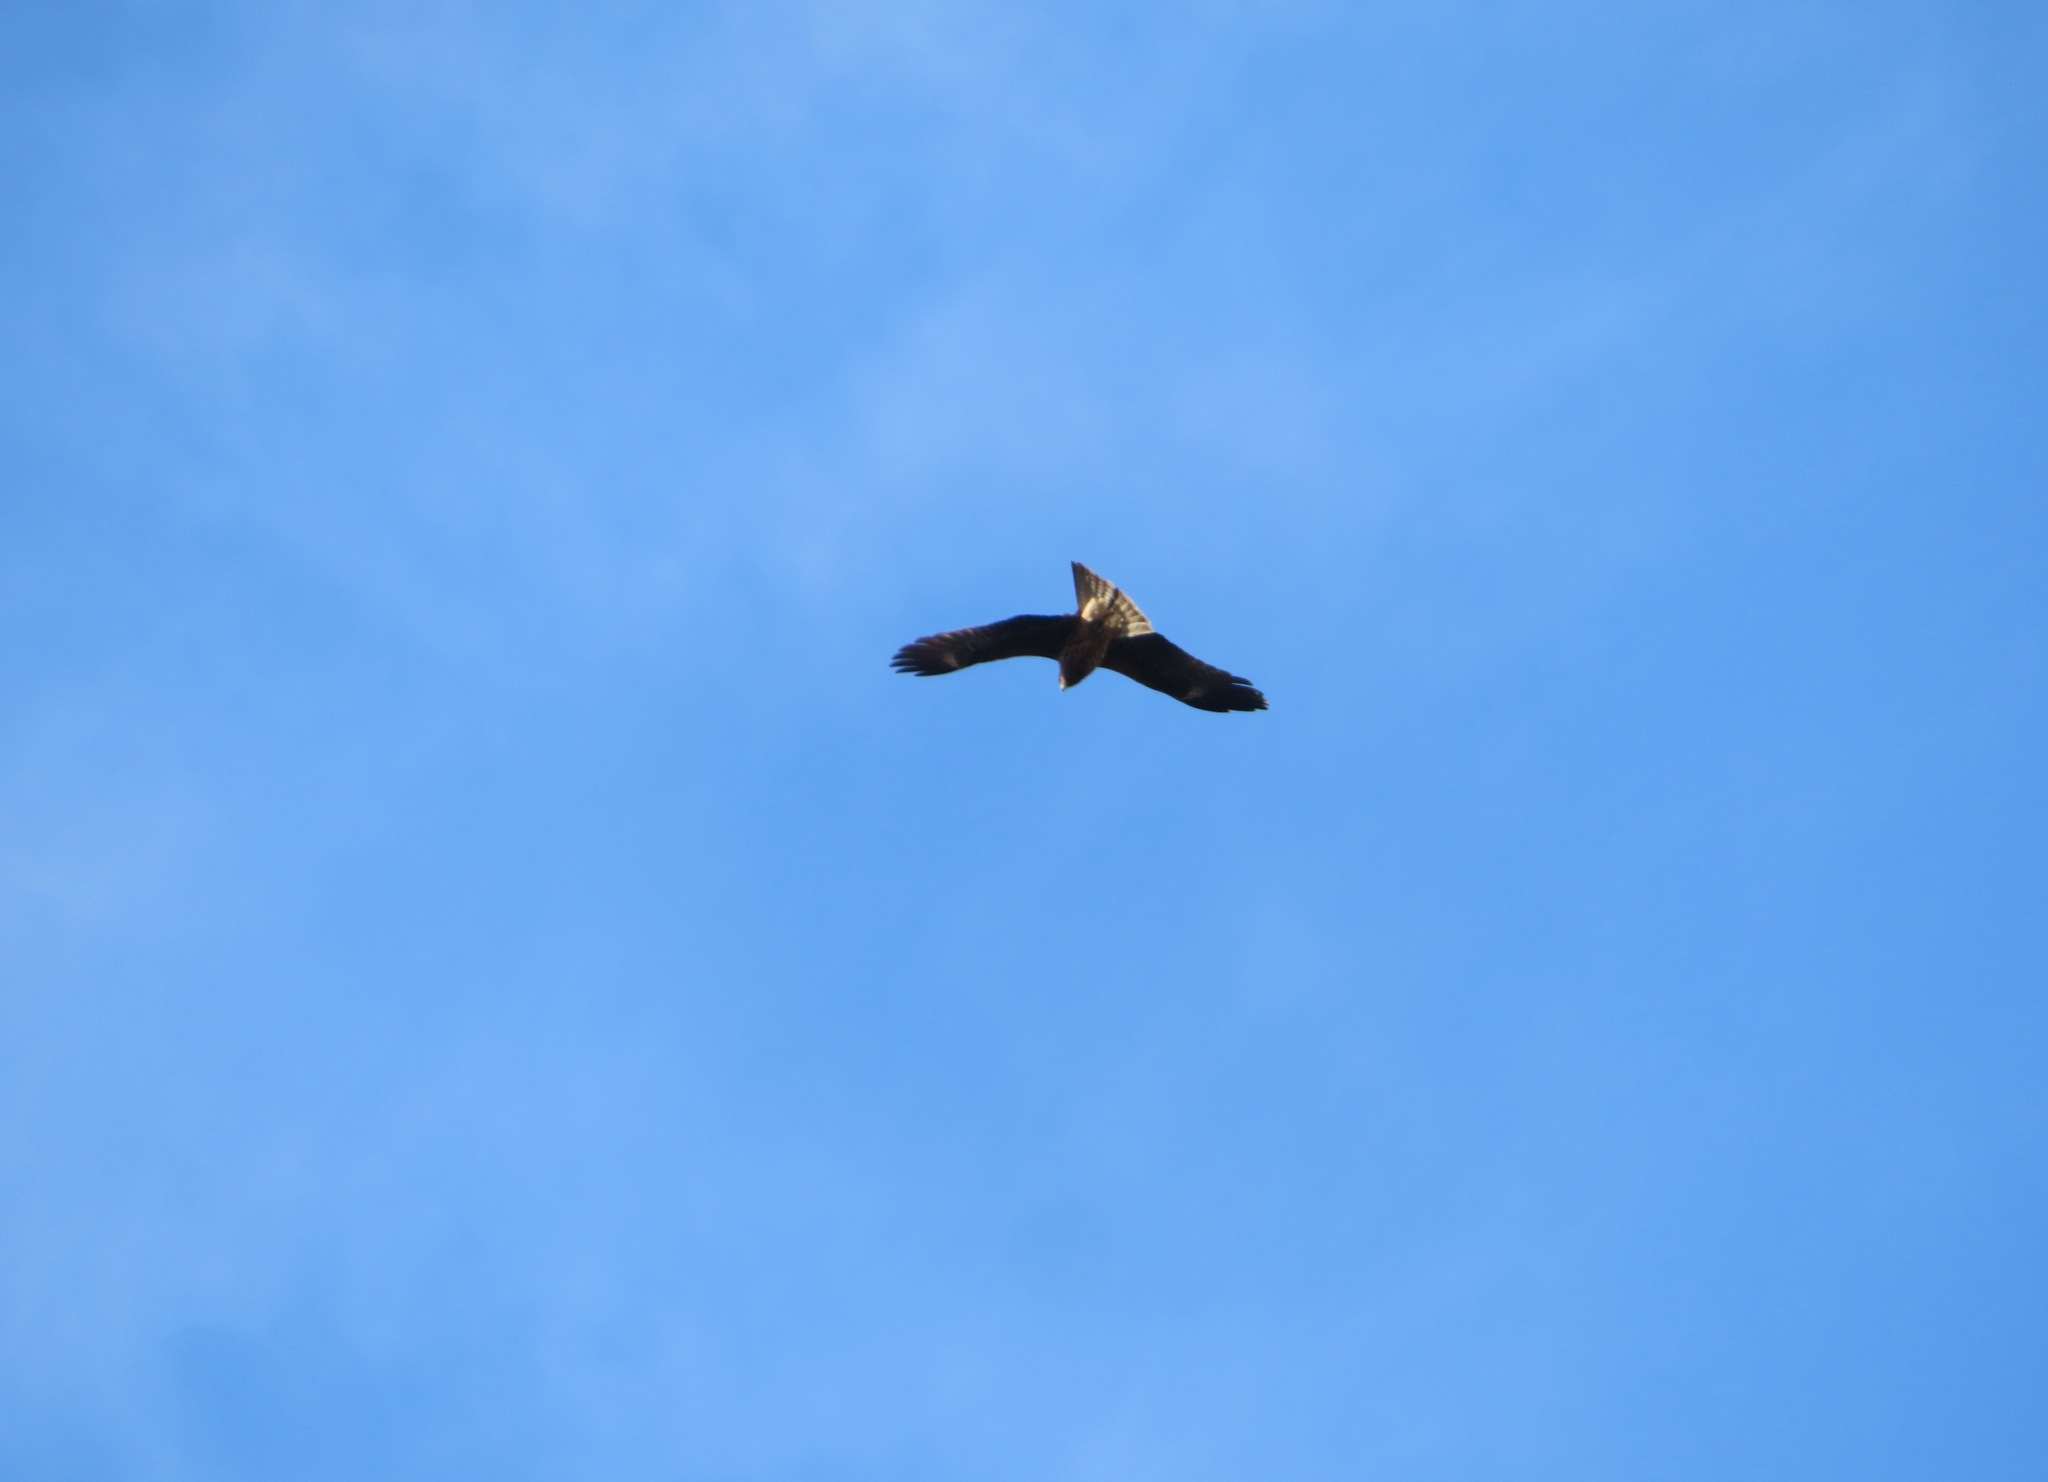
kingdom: Animalia
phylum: Chordata
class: Aves
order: Accipitriformes
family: Accipitridae
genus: Milvus
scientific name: Milvus migrans
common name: Black kite
